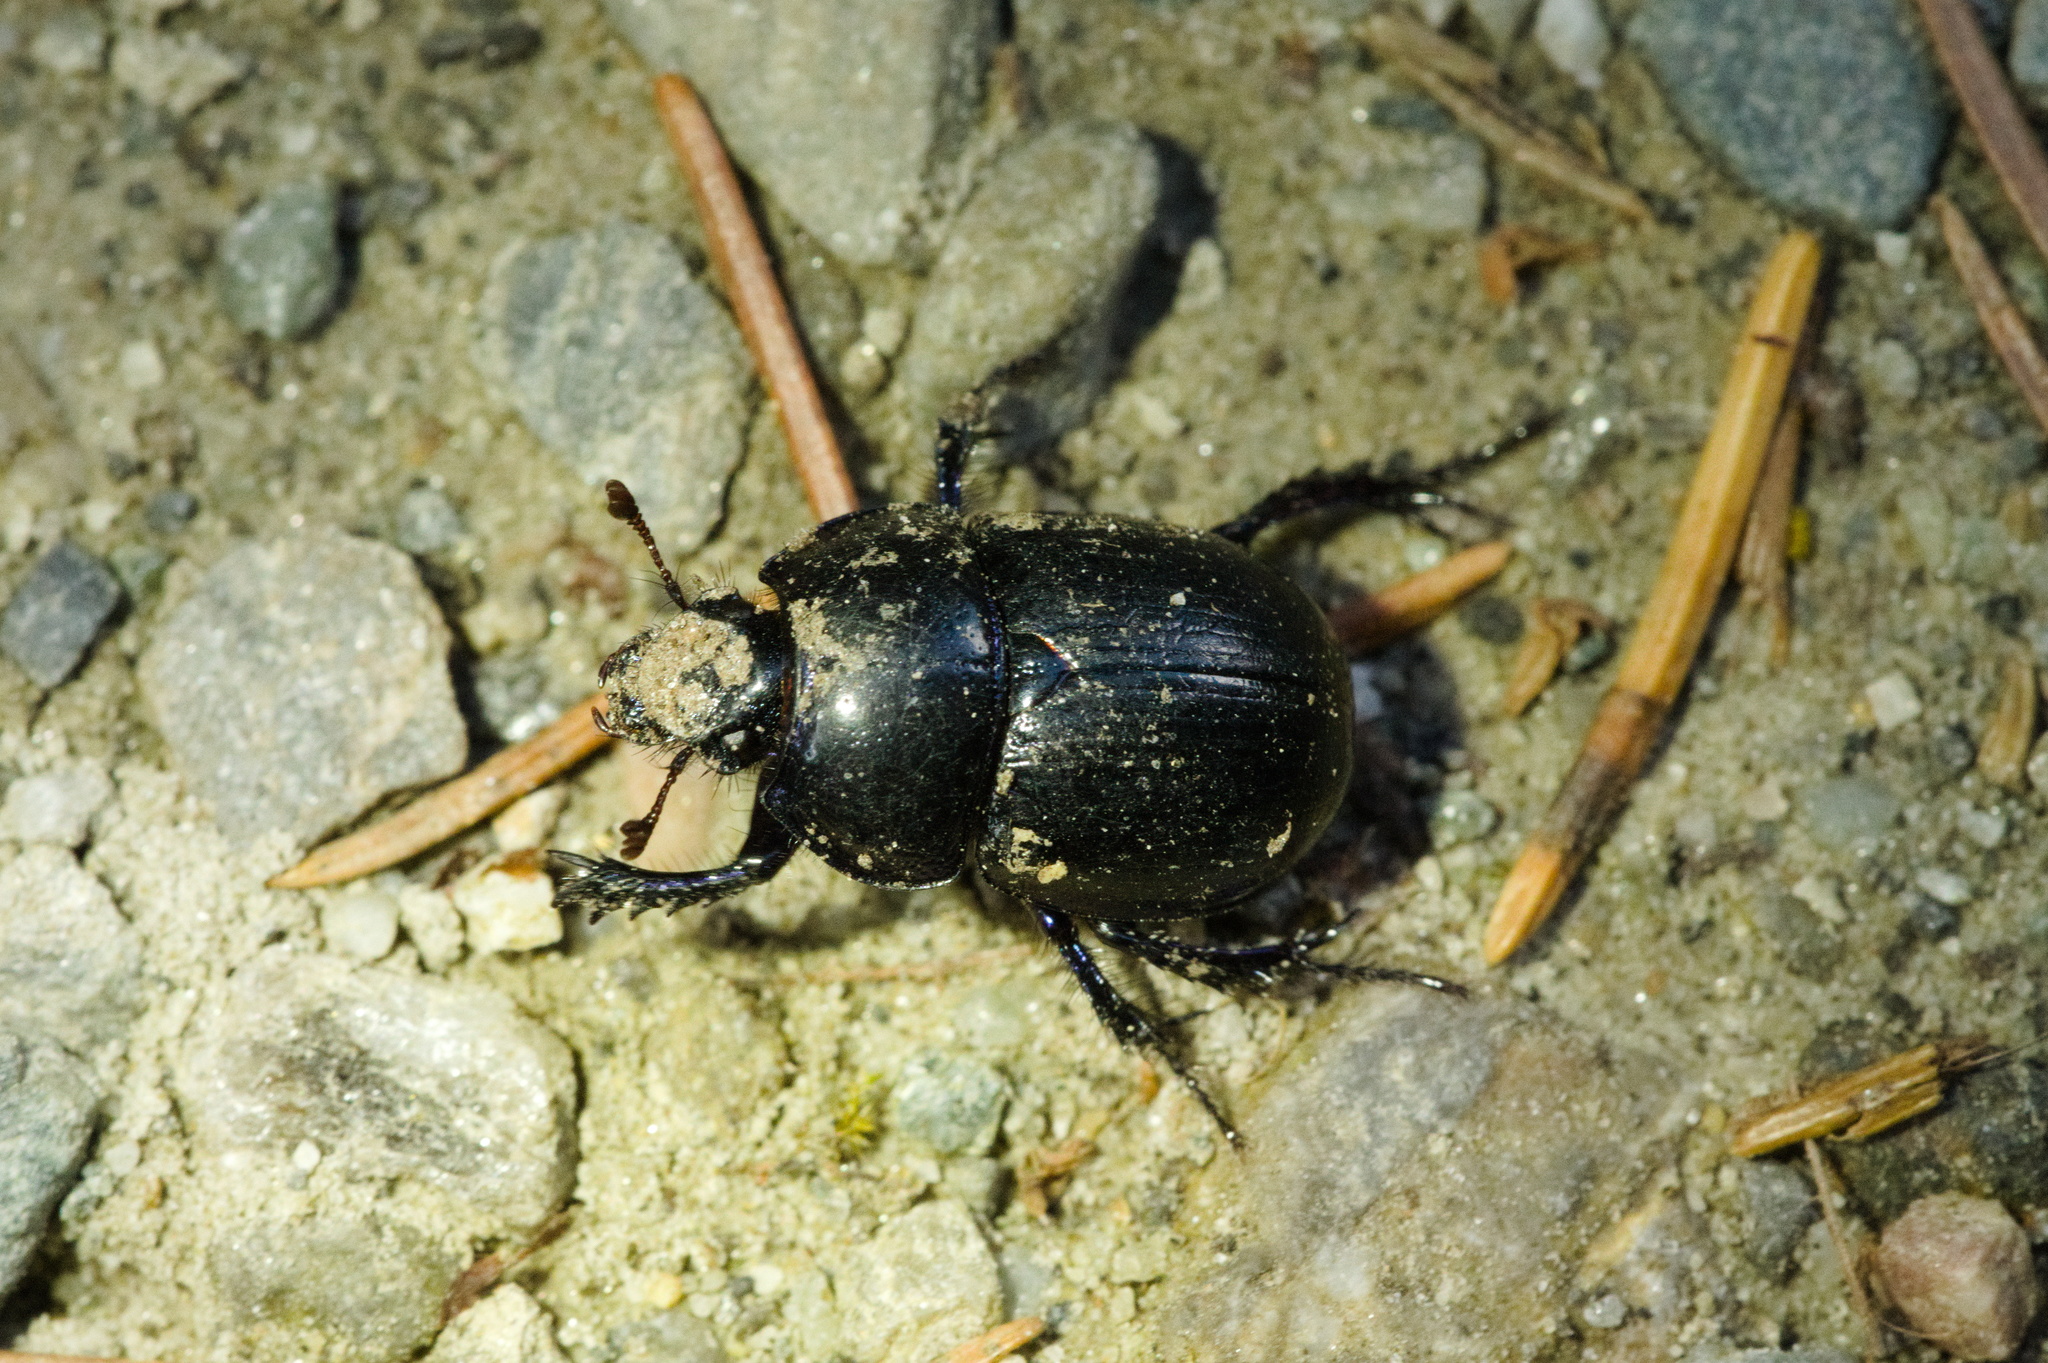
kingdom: Animalia
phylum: Arthropoda
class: Insecta
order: Coleoptera
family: Geotrupidae
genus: Anoplotrupes
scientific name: Anoplotrupes stercorosus
